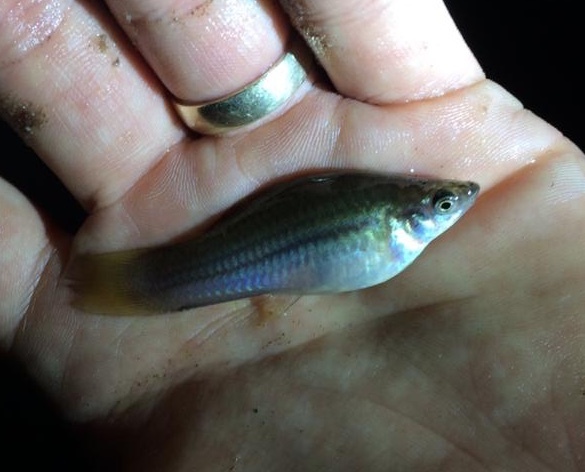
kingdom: Animalia
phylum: Chordata
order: Cyprinodontiformes
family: Poeciliidae
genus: Xiphophorus
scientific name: Xiphophorus hellerii
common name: Green swordtail
